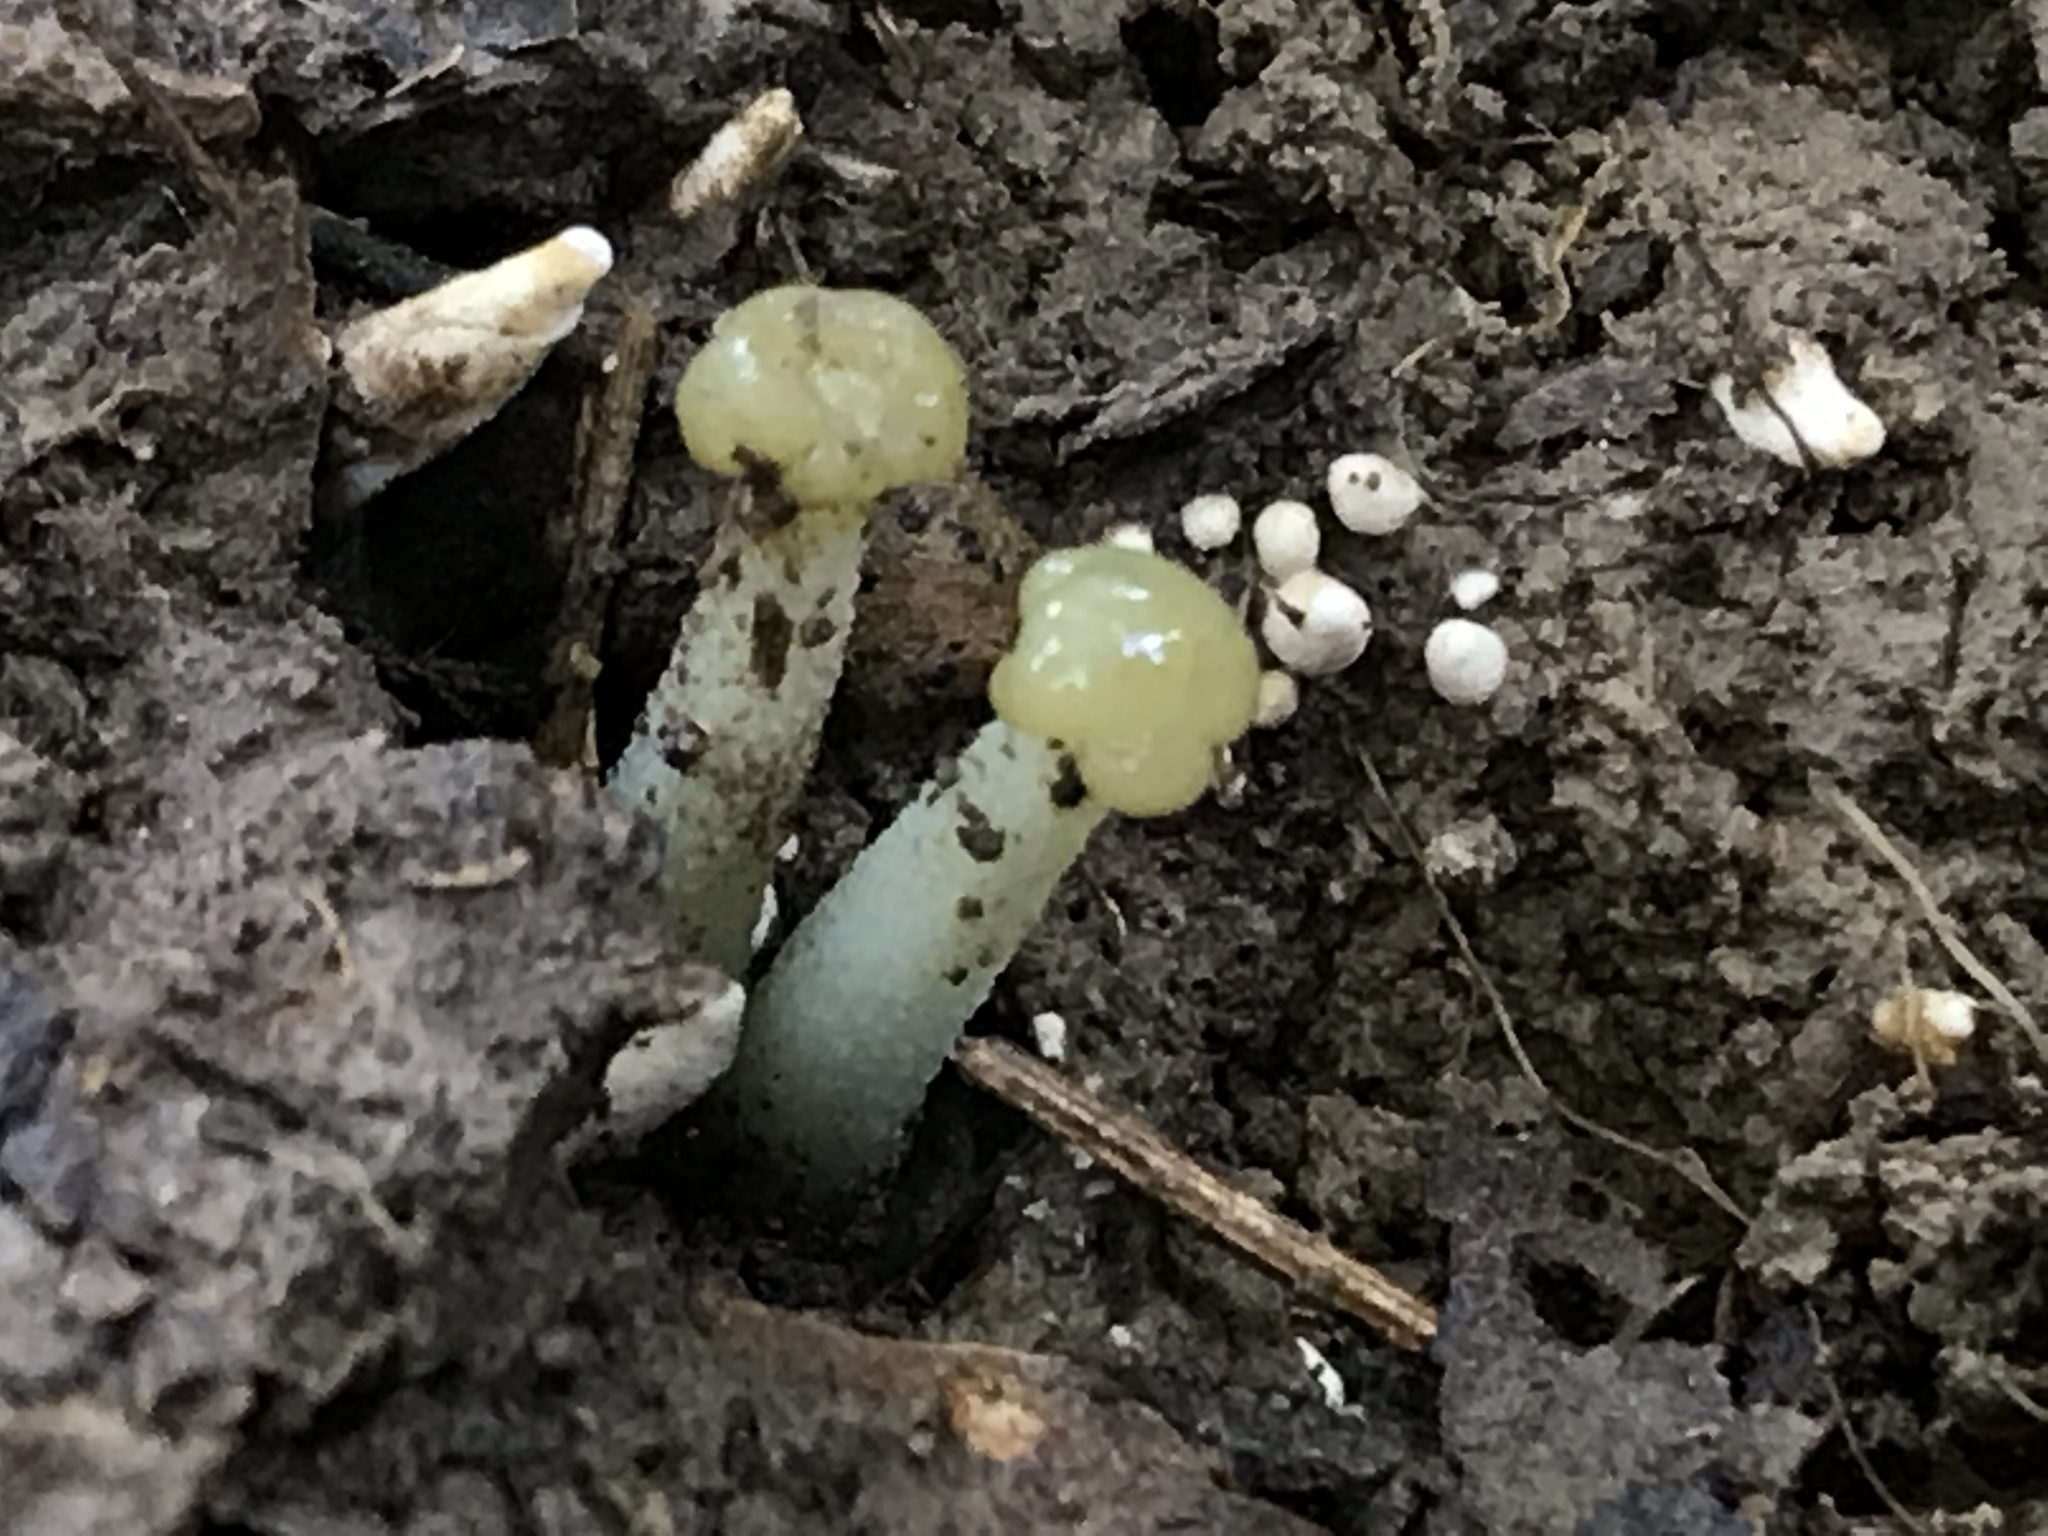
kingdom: Fungi
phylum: Ascomycota
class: Leotiomycetes
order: Leotiales
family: Leotiaceae
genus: Leotia
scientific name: Leotia atrovirens
